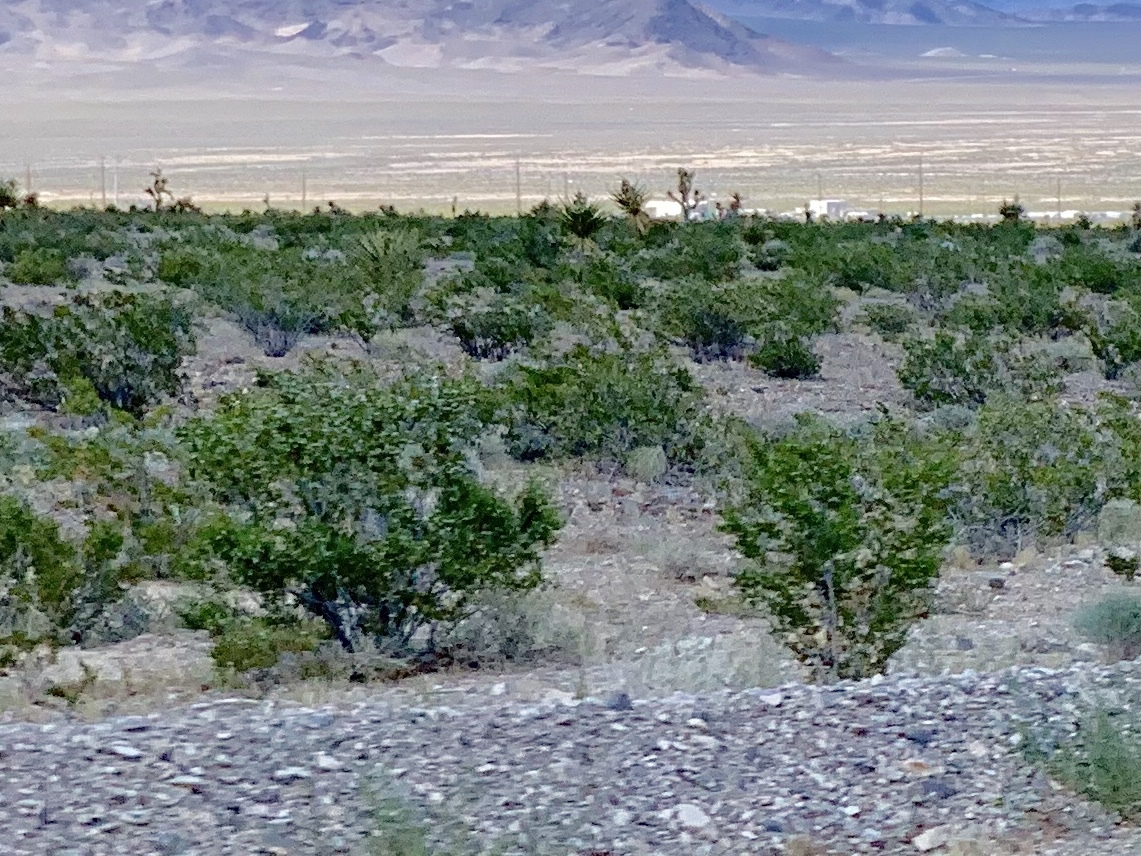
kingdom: Plantae
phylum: Tracheophyta
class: Magnoliopsida
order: Zygophyllales
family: Zygophyllaceae
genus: Larrea
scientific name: Larrea tridentata
